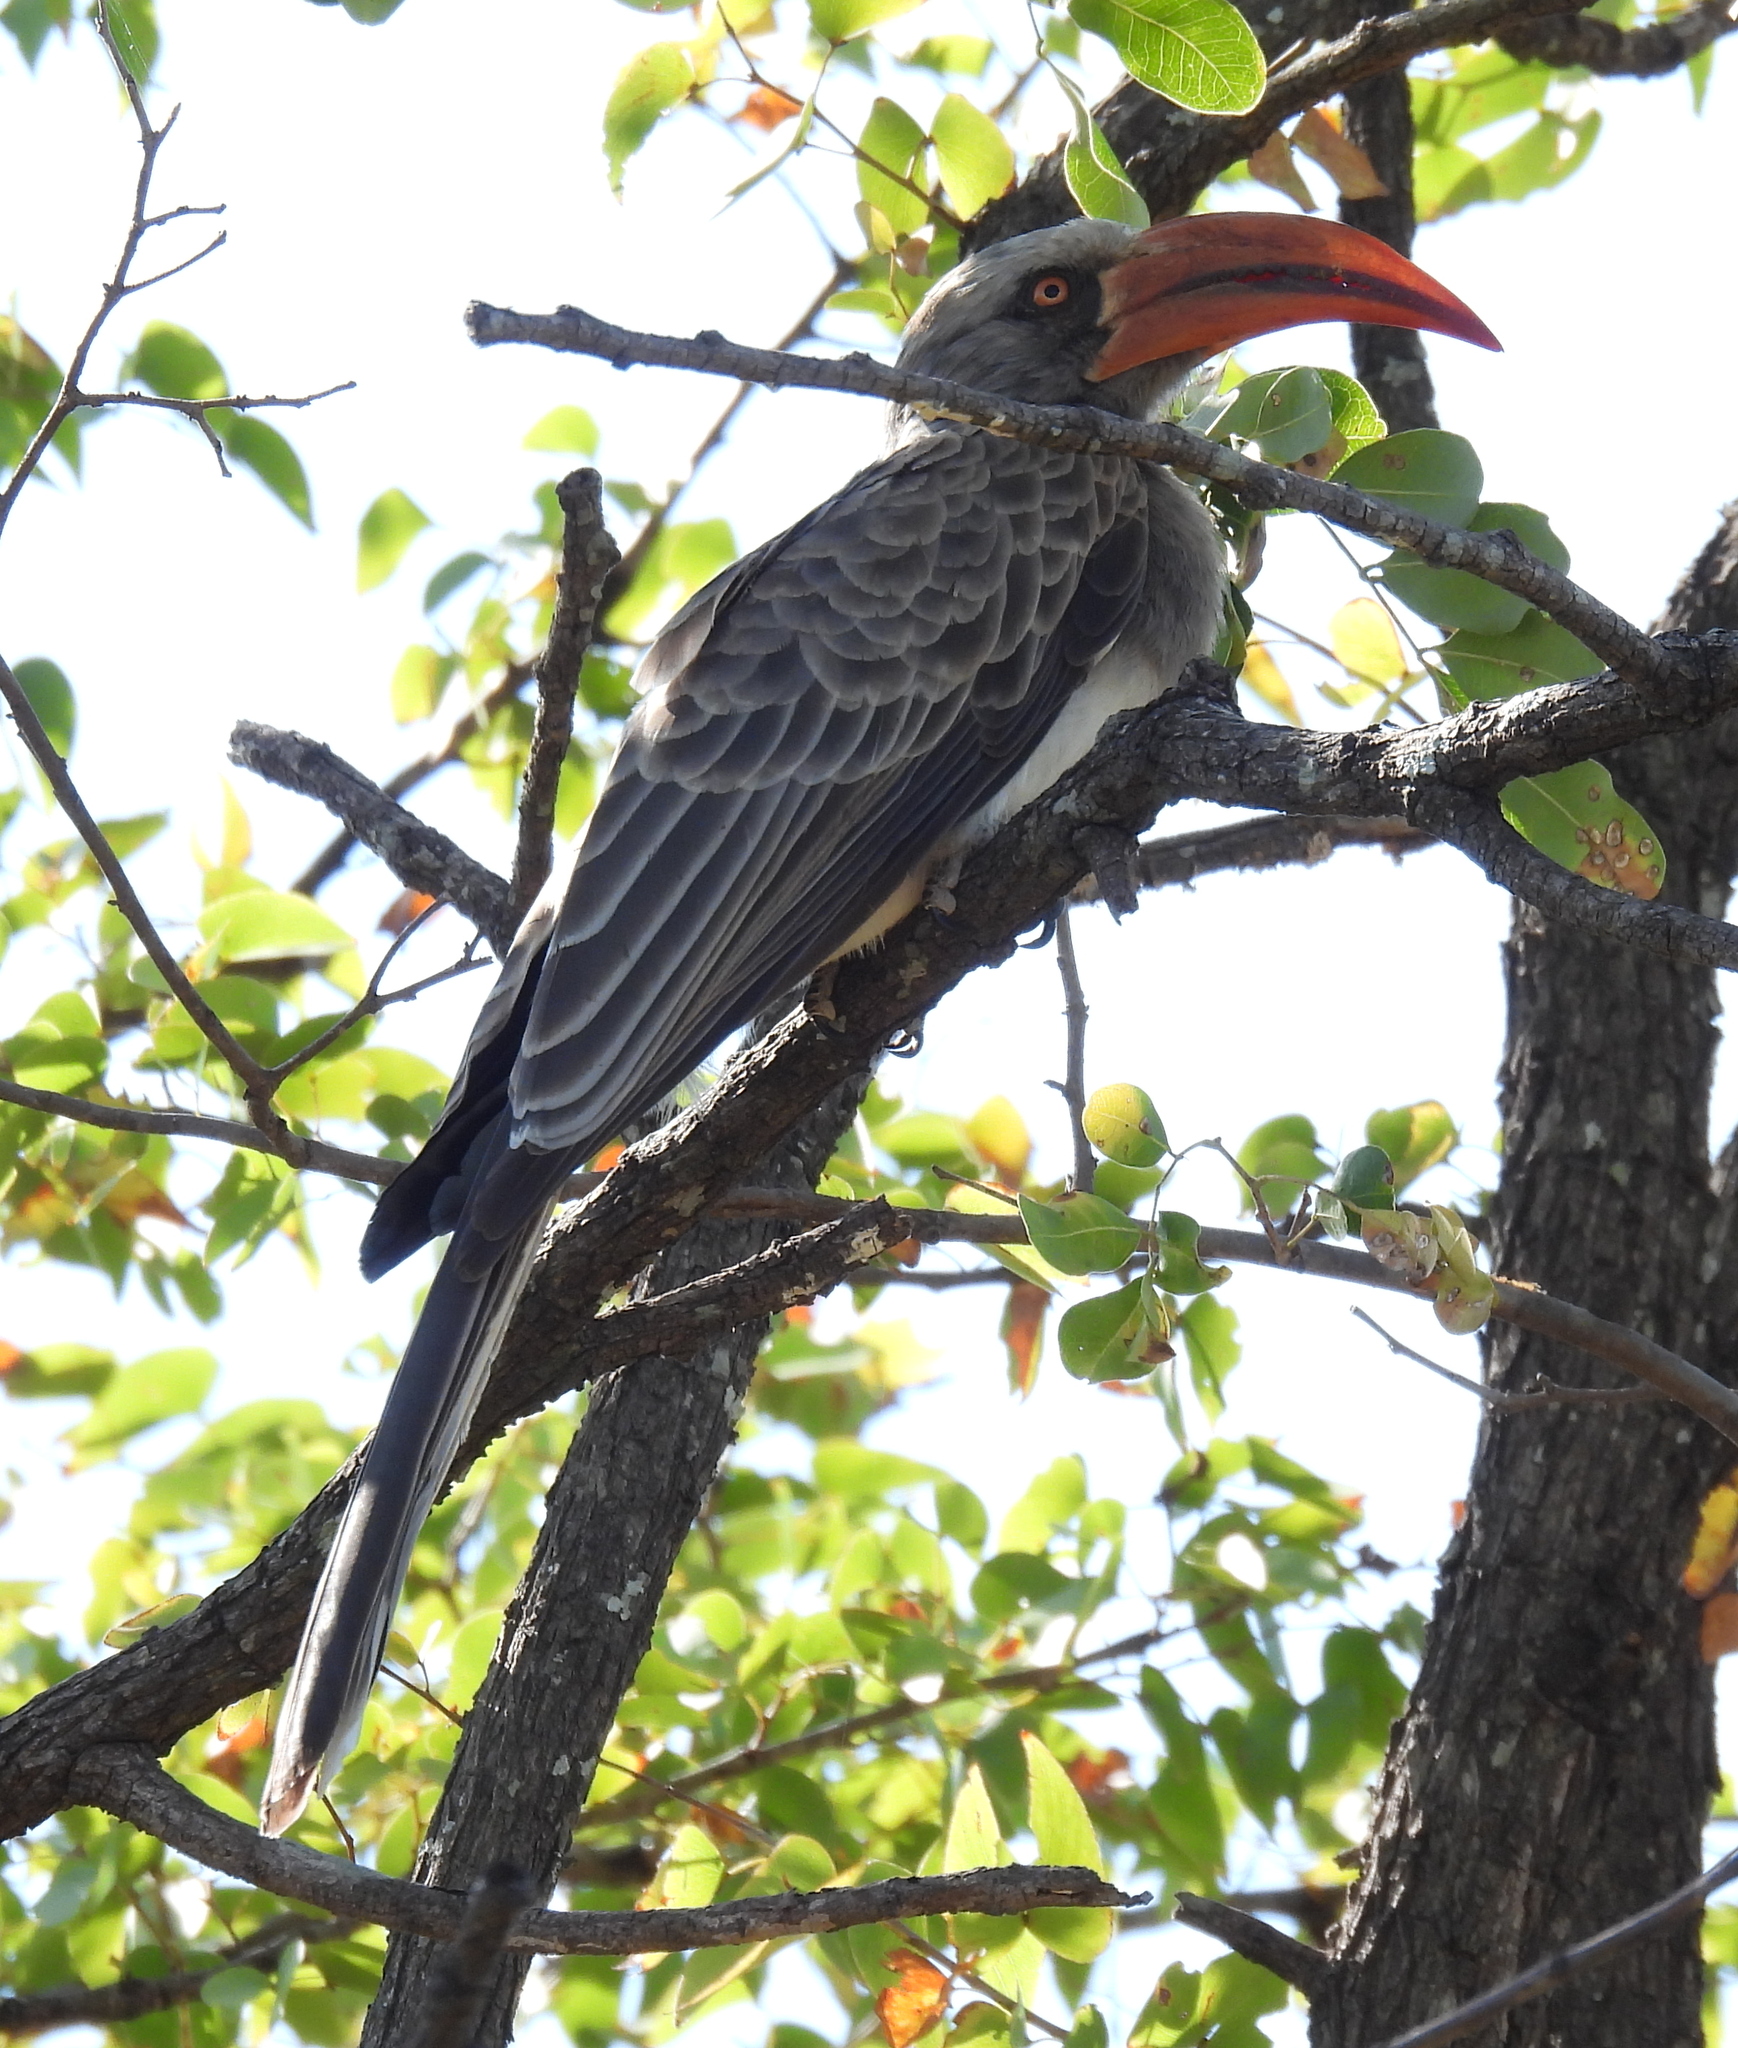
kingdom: Animalia
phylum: Chordata
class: Aves
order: Bucerotiformes
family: Bucerotidae
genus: Lophoceros
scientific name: Lophoceros bradfieldi
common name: Bradfield's hornbill
